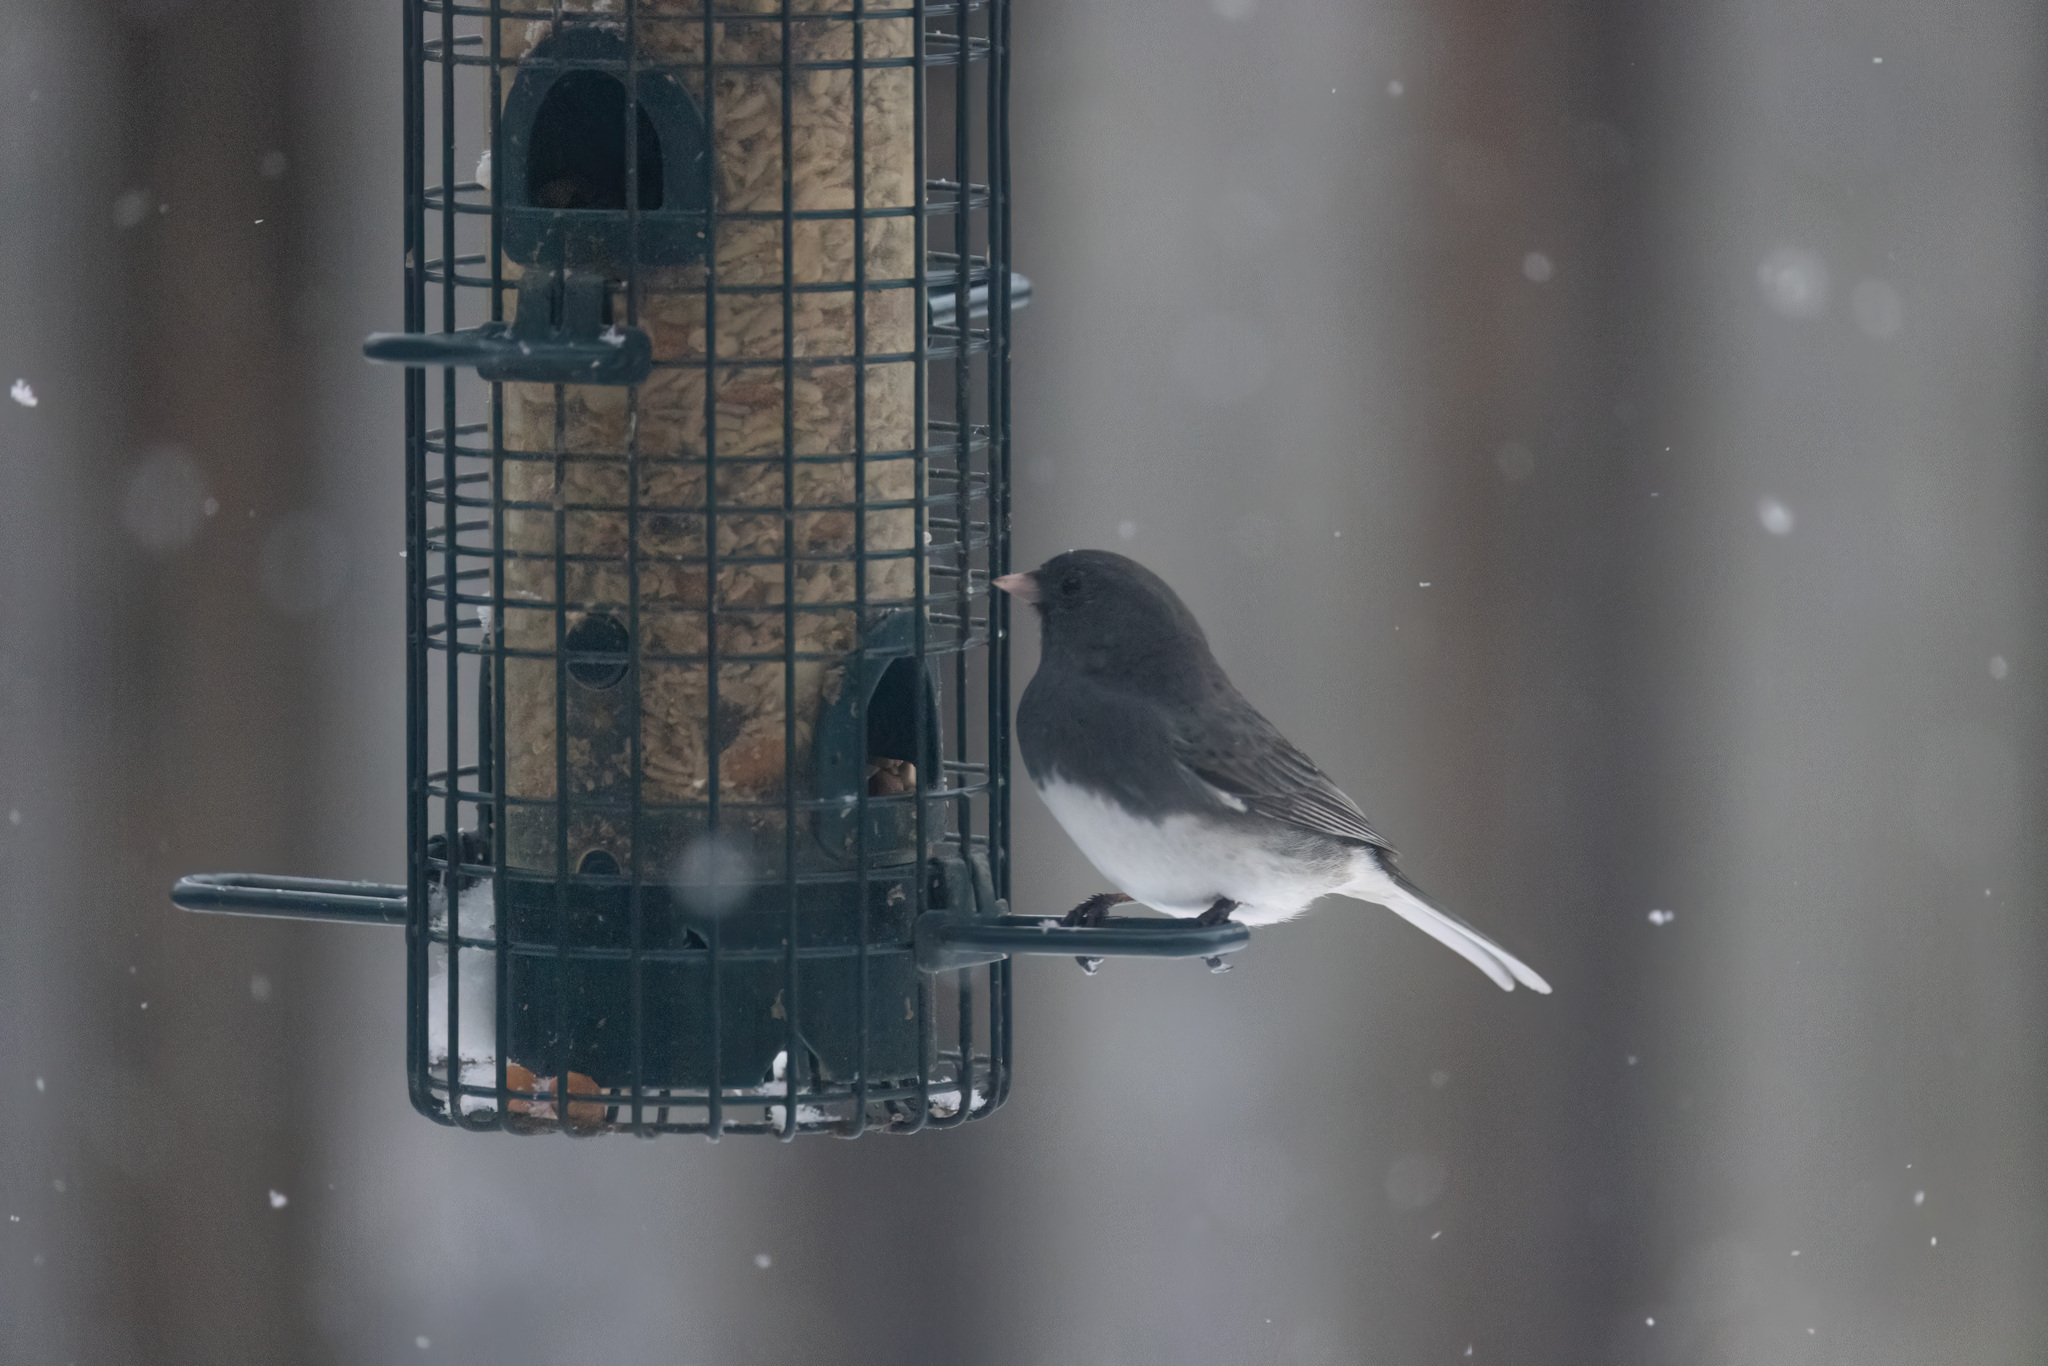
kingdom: Animalia
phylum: Chordata
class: Aves
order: Passeriformes
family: Passerellidae
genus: Junco
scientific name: Junco hyemalis
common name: Dark-eyed junco
